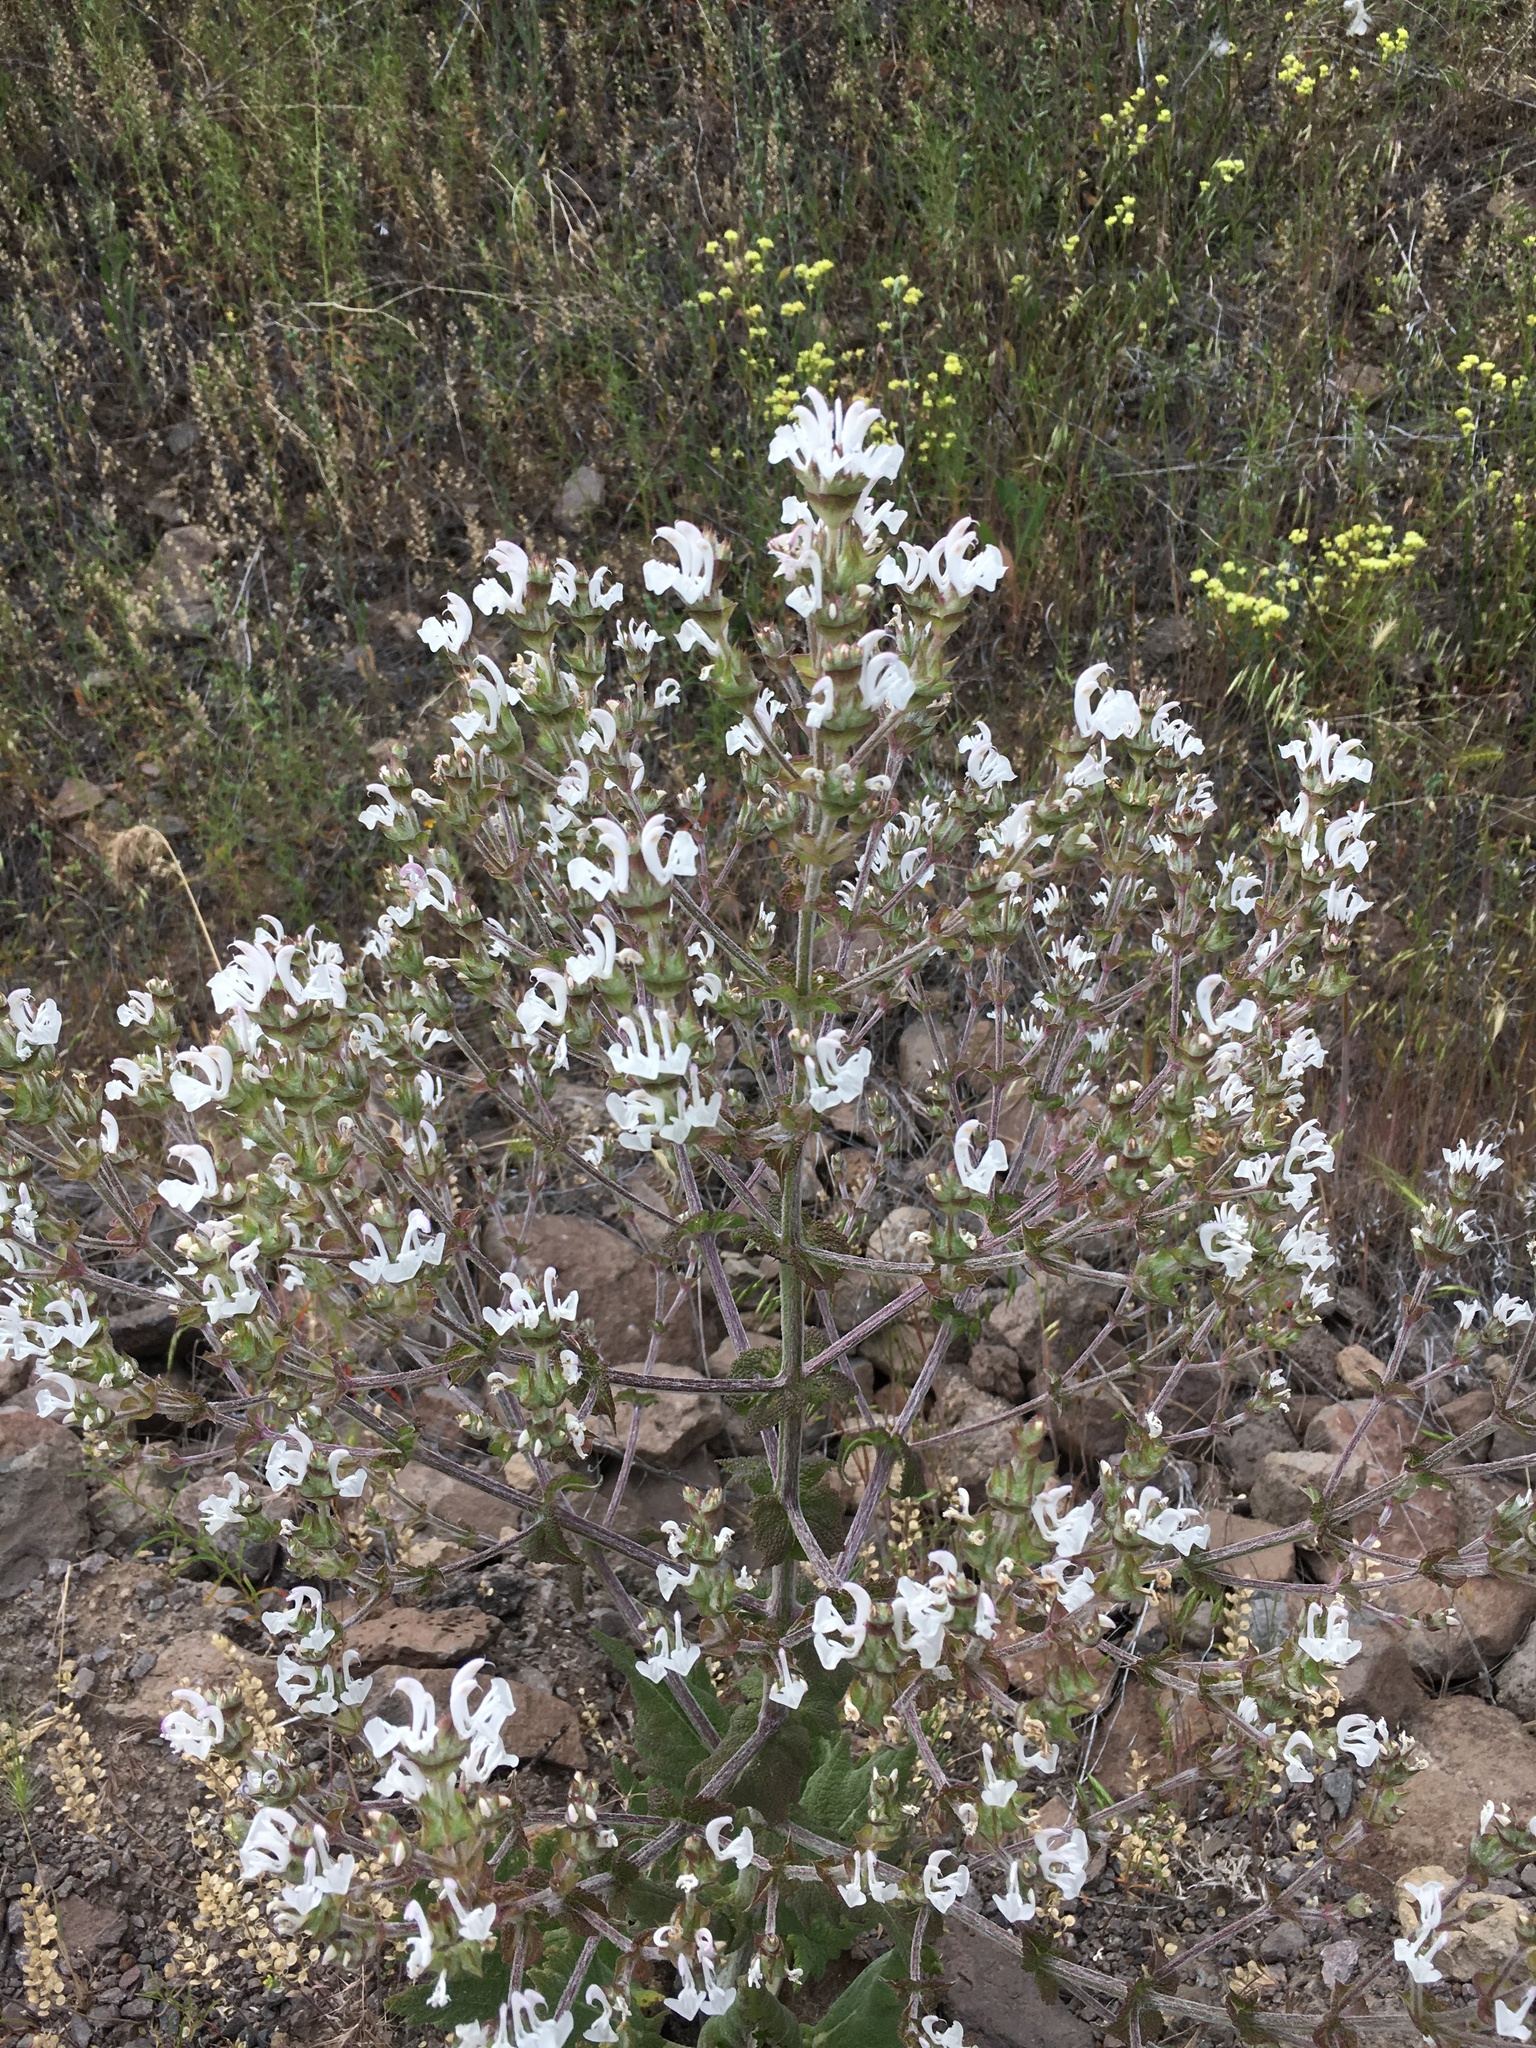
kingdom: Plantae
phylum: Tracheophyta
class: Magnoliopsida
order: Lamiales
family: Lamiaceae
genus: Salvia
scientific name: Salvia aethiopis
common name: Mediterranean sage
